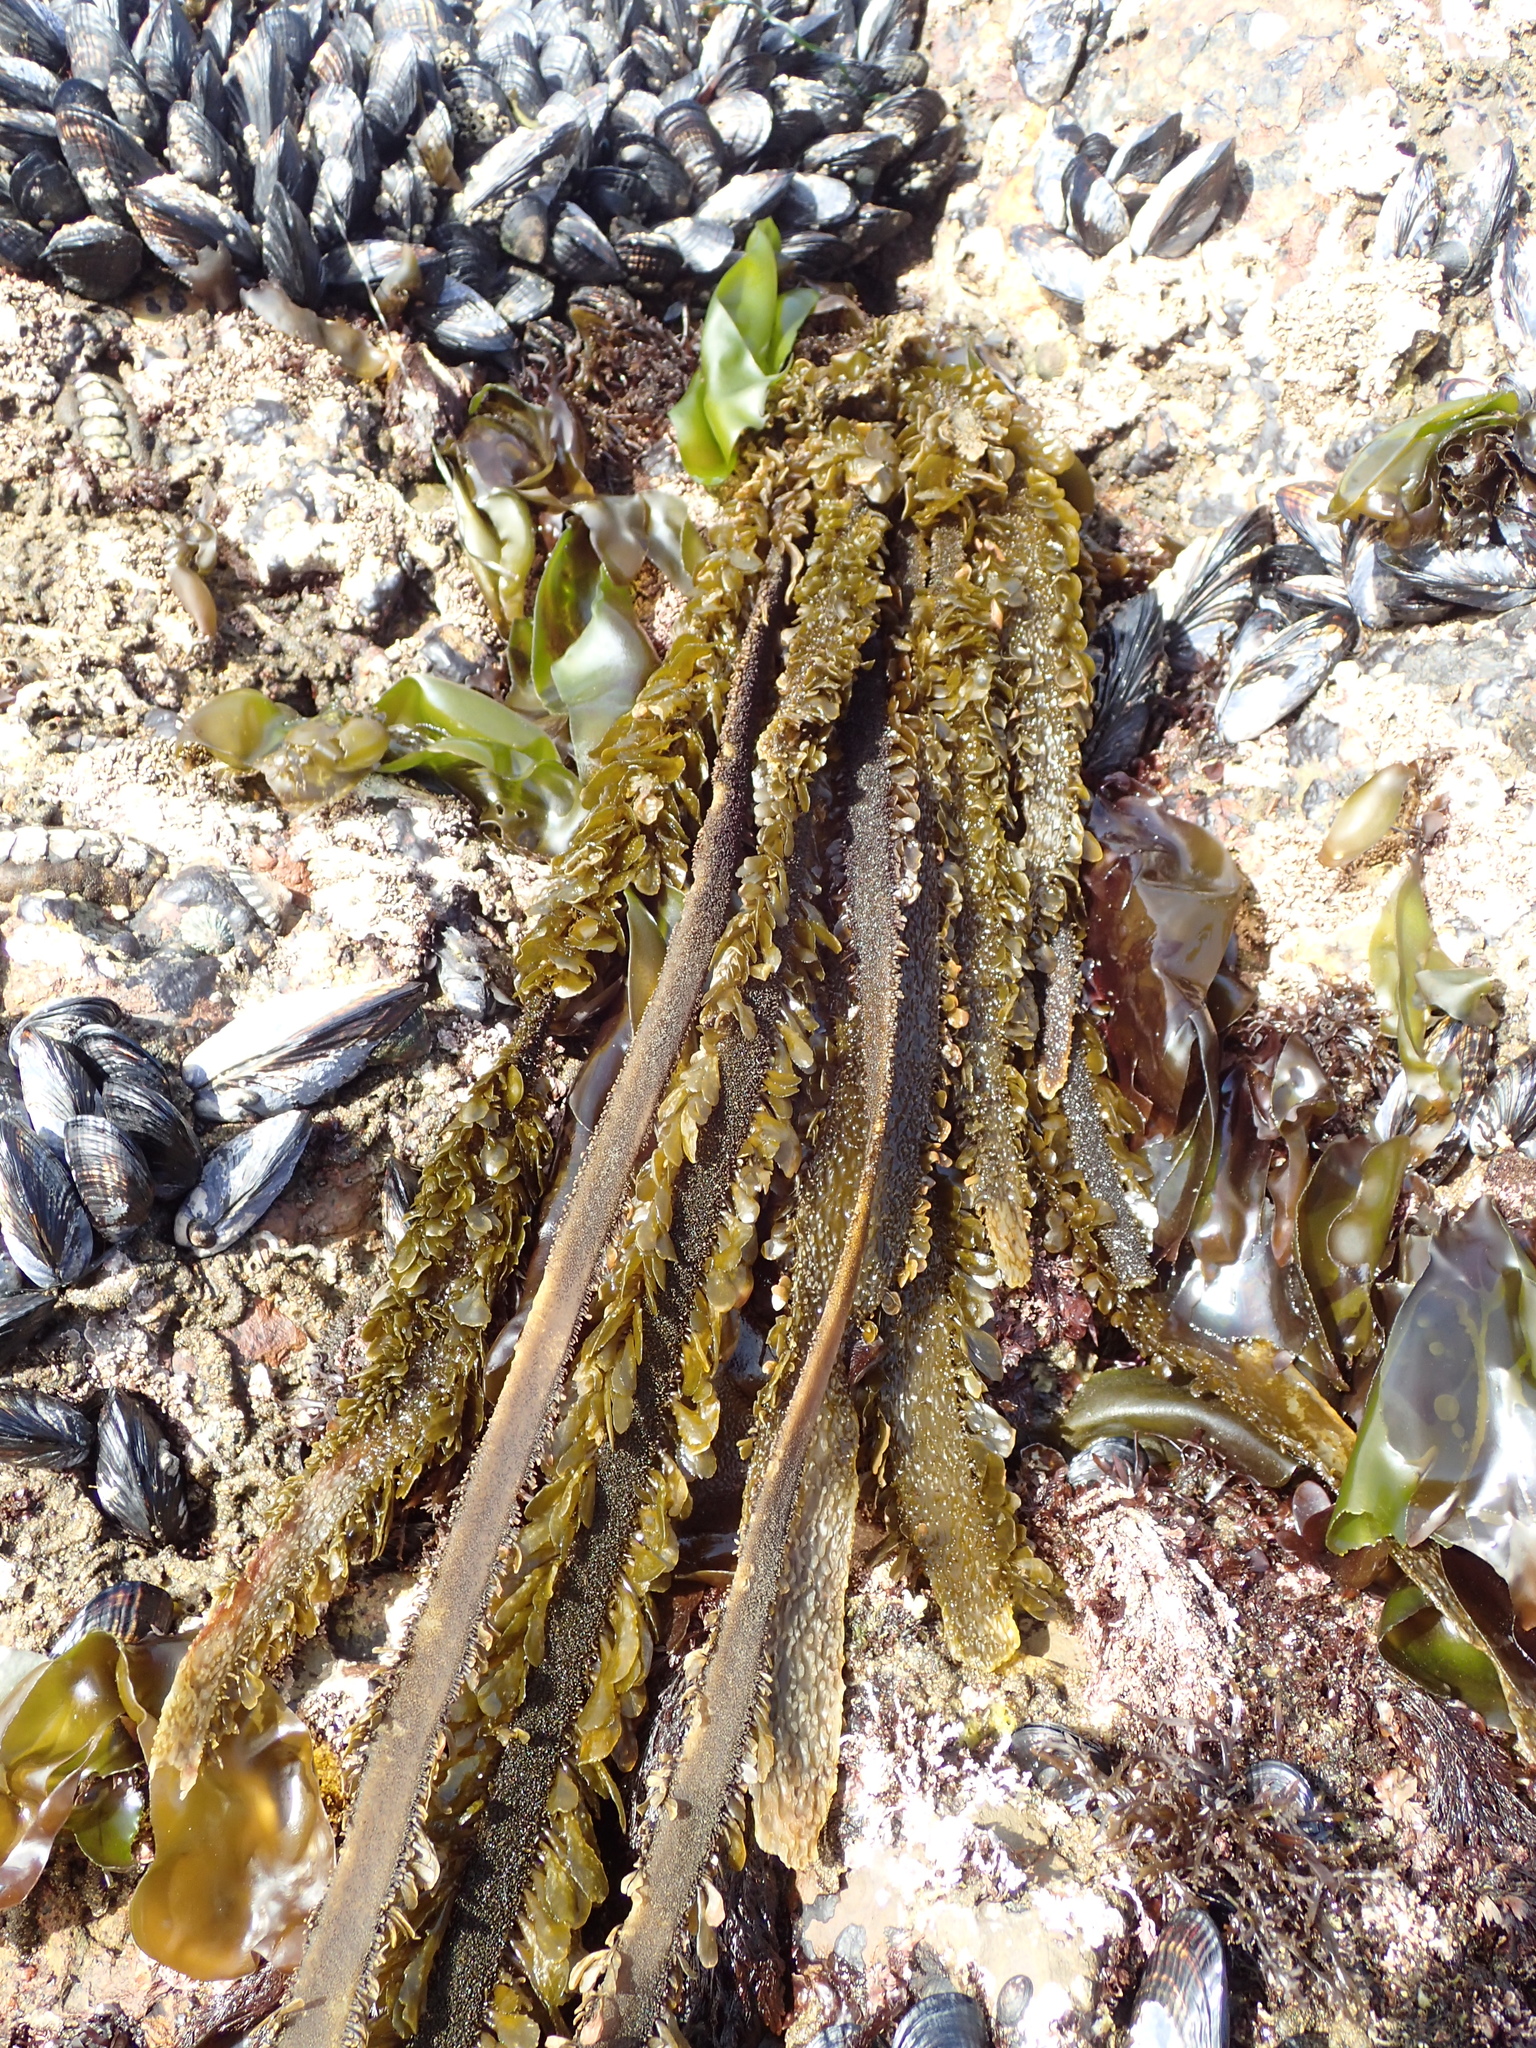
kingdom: Chromista
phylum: Ochrophyta
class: Phaeophyceae
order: Laminariales
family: Lessoniaceae
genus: Egregia
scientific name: Egregia menziesii
